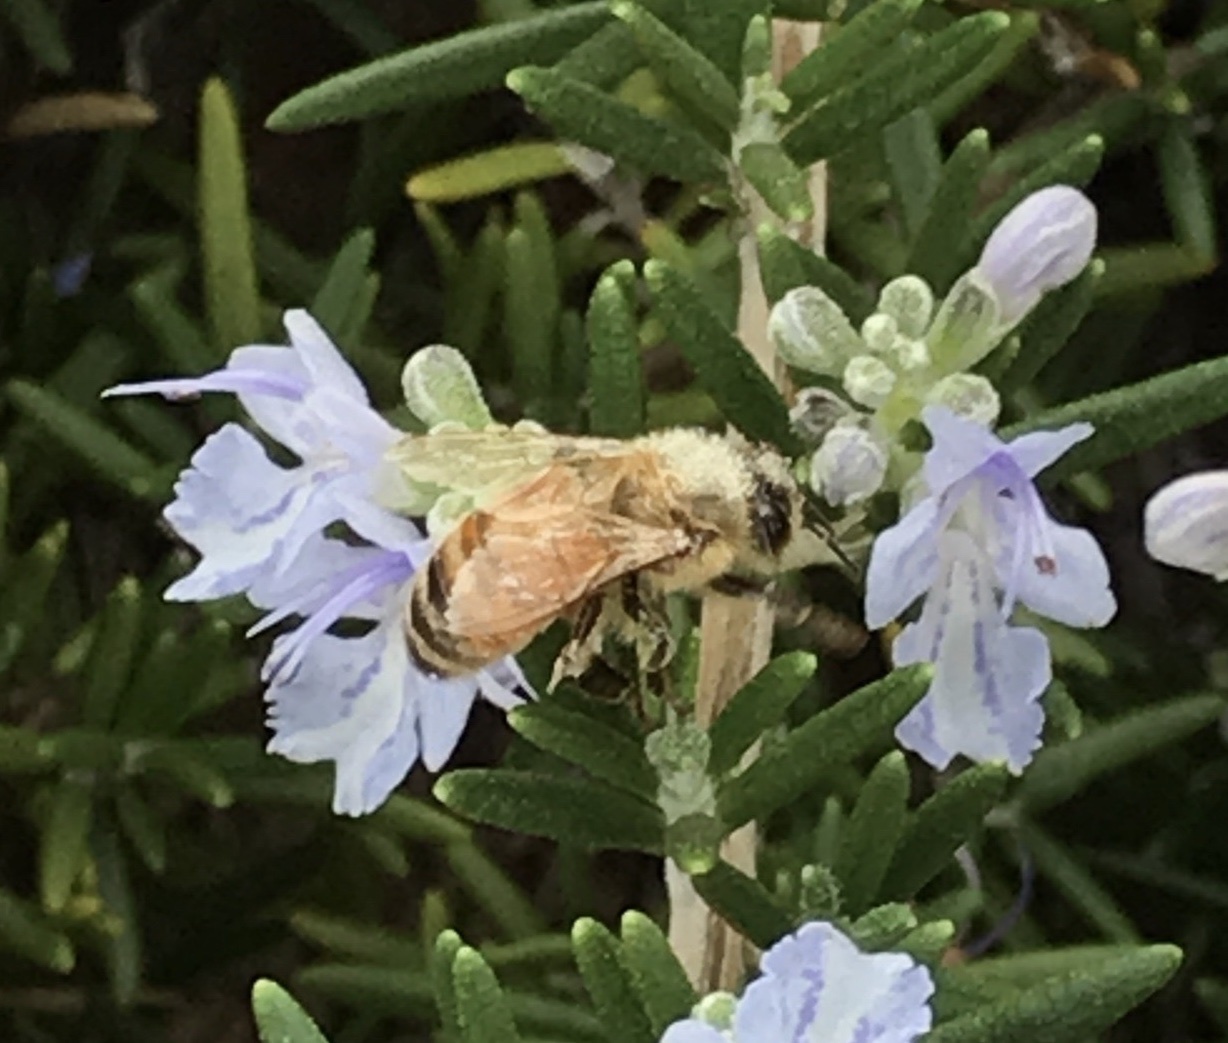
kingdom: Animalia
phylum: Arthropoda
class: Insecta
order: Hymenoptera
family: Apidae
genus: Apis
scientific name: Apis mellifera
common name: Honey bee
